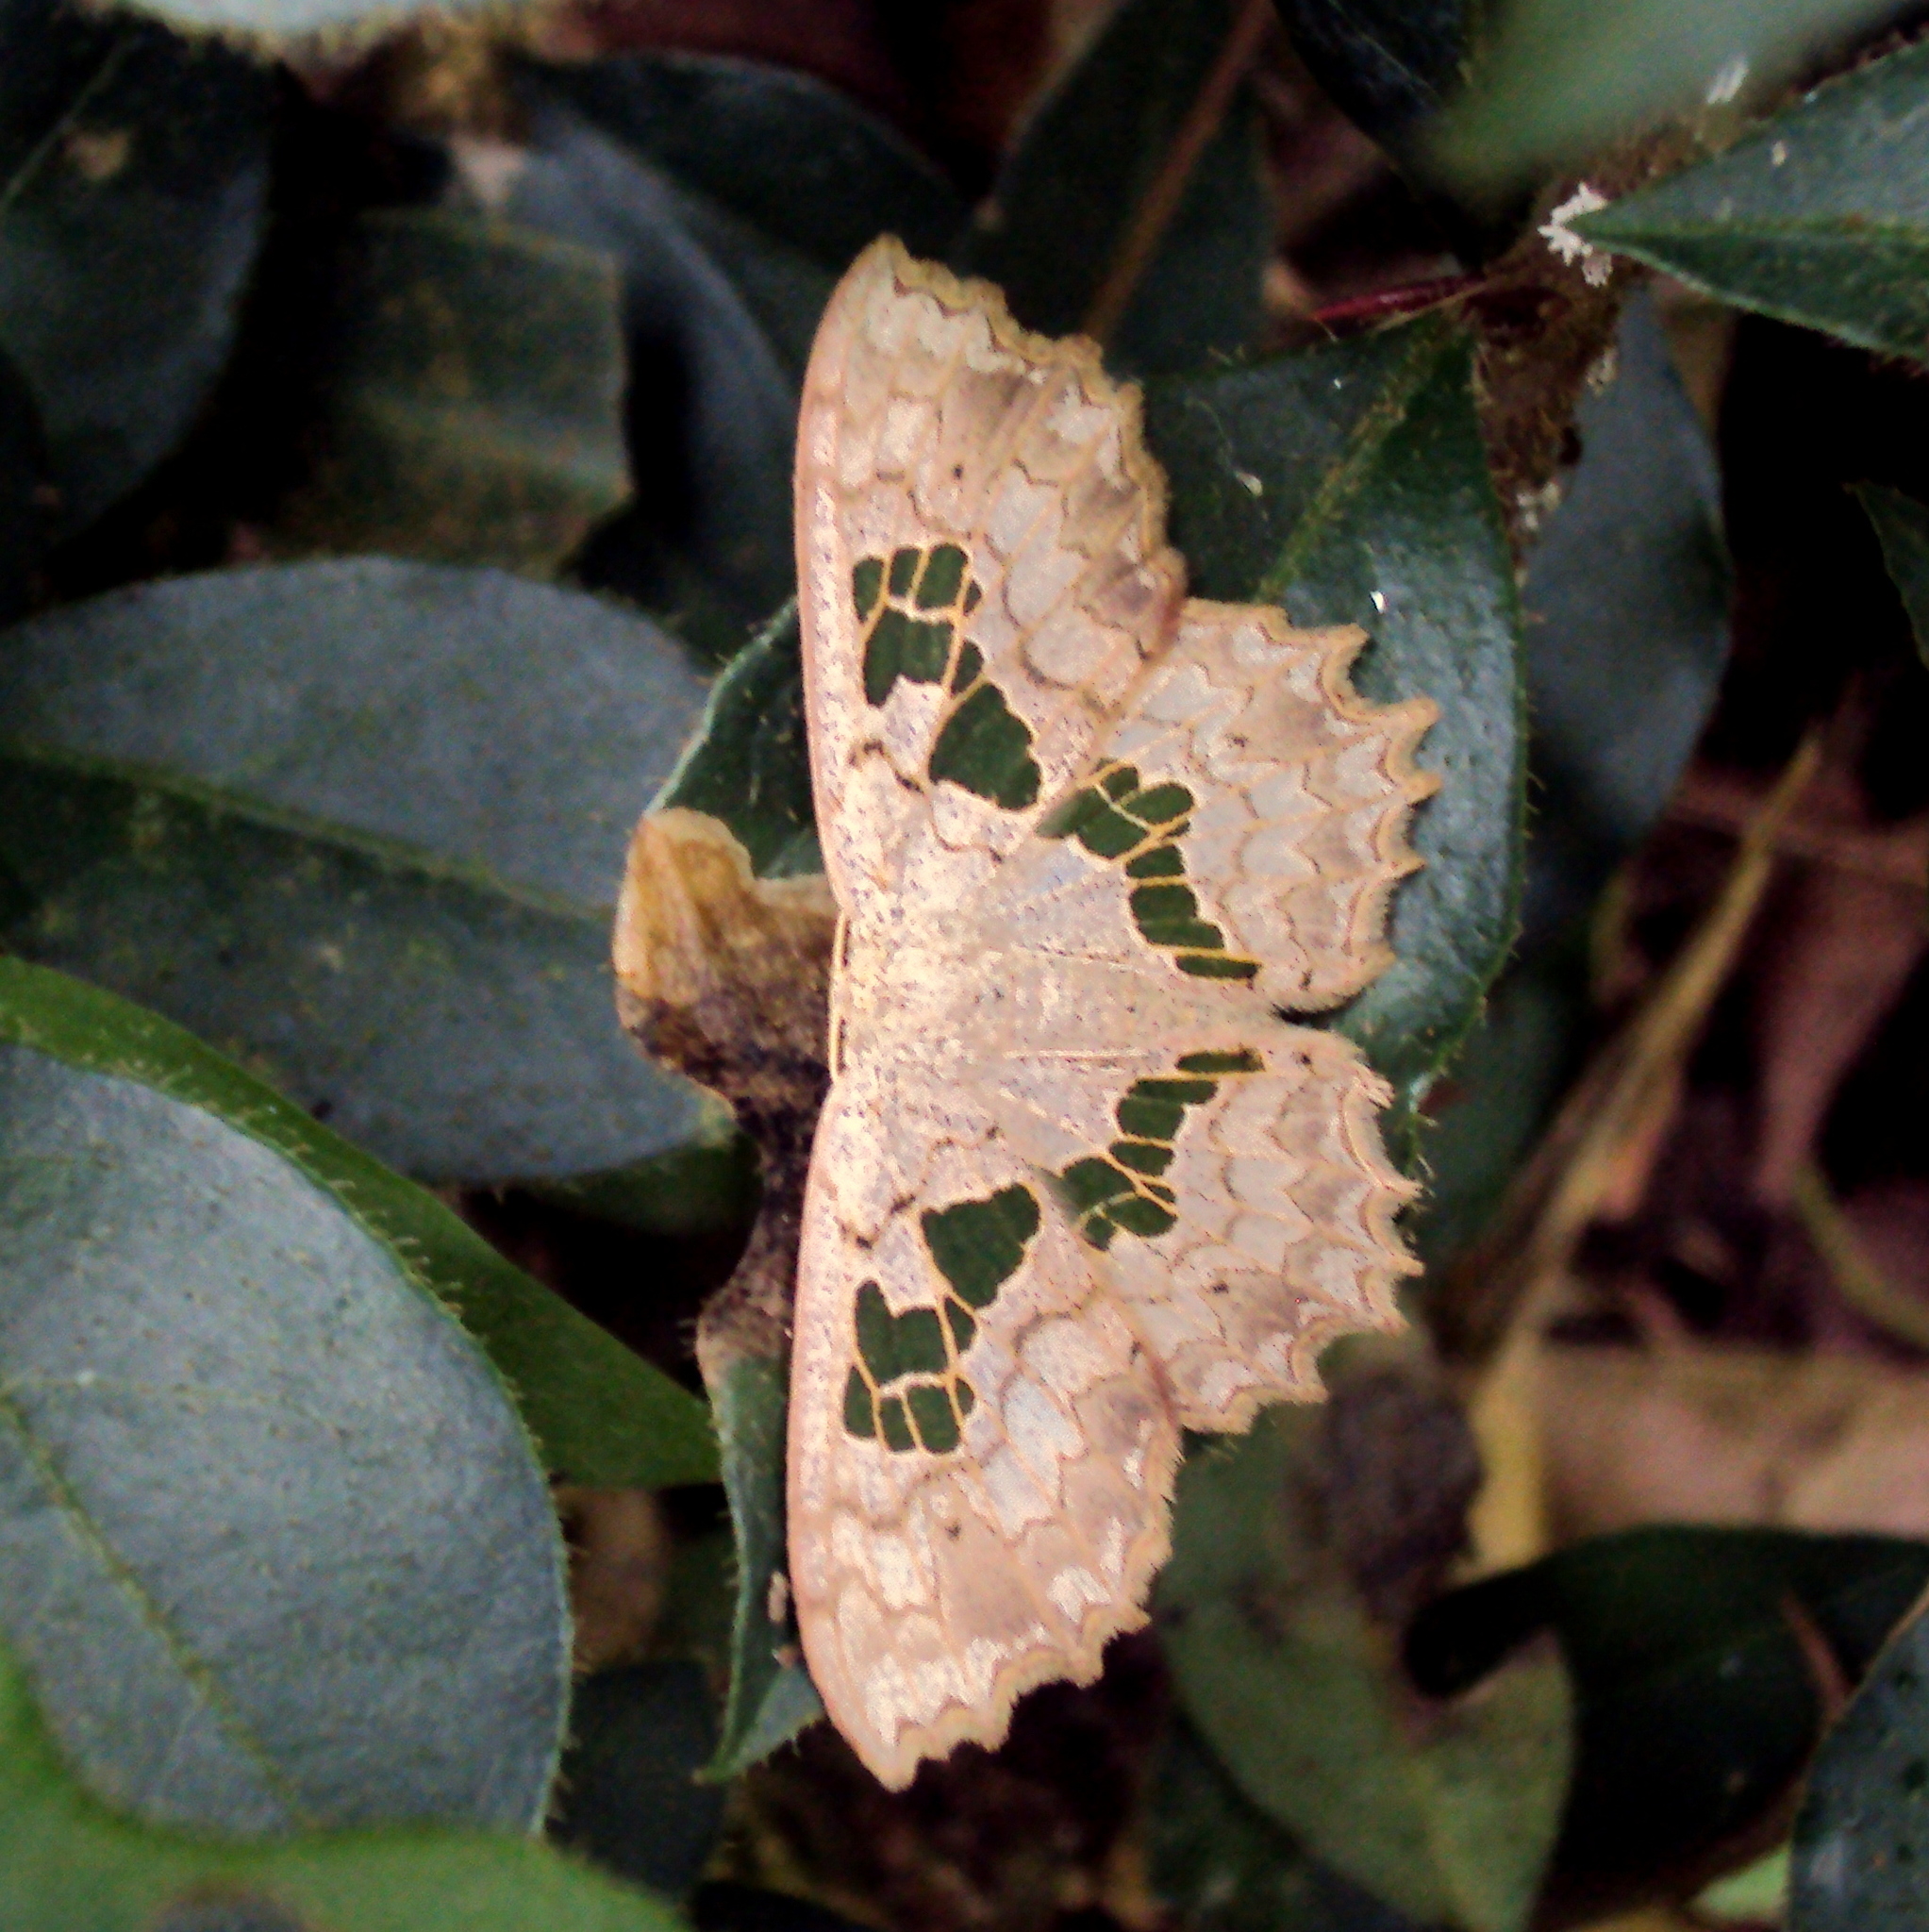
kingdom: Animalia
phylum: Arthropoda
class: Insecta
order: Lepidoptera
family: Geometridae
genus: Trygodes
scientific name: Trygodes musivaria
